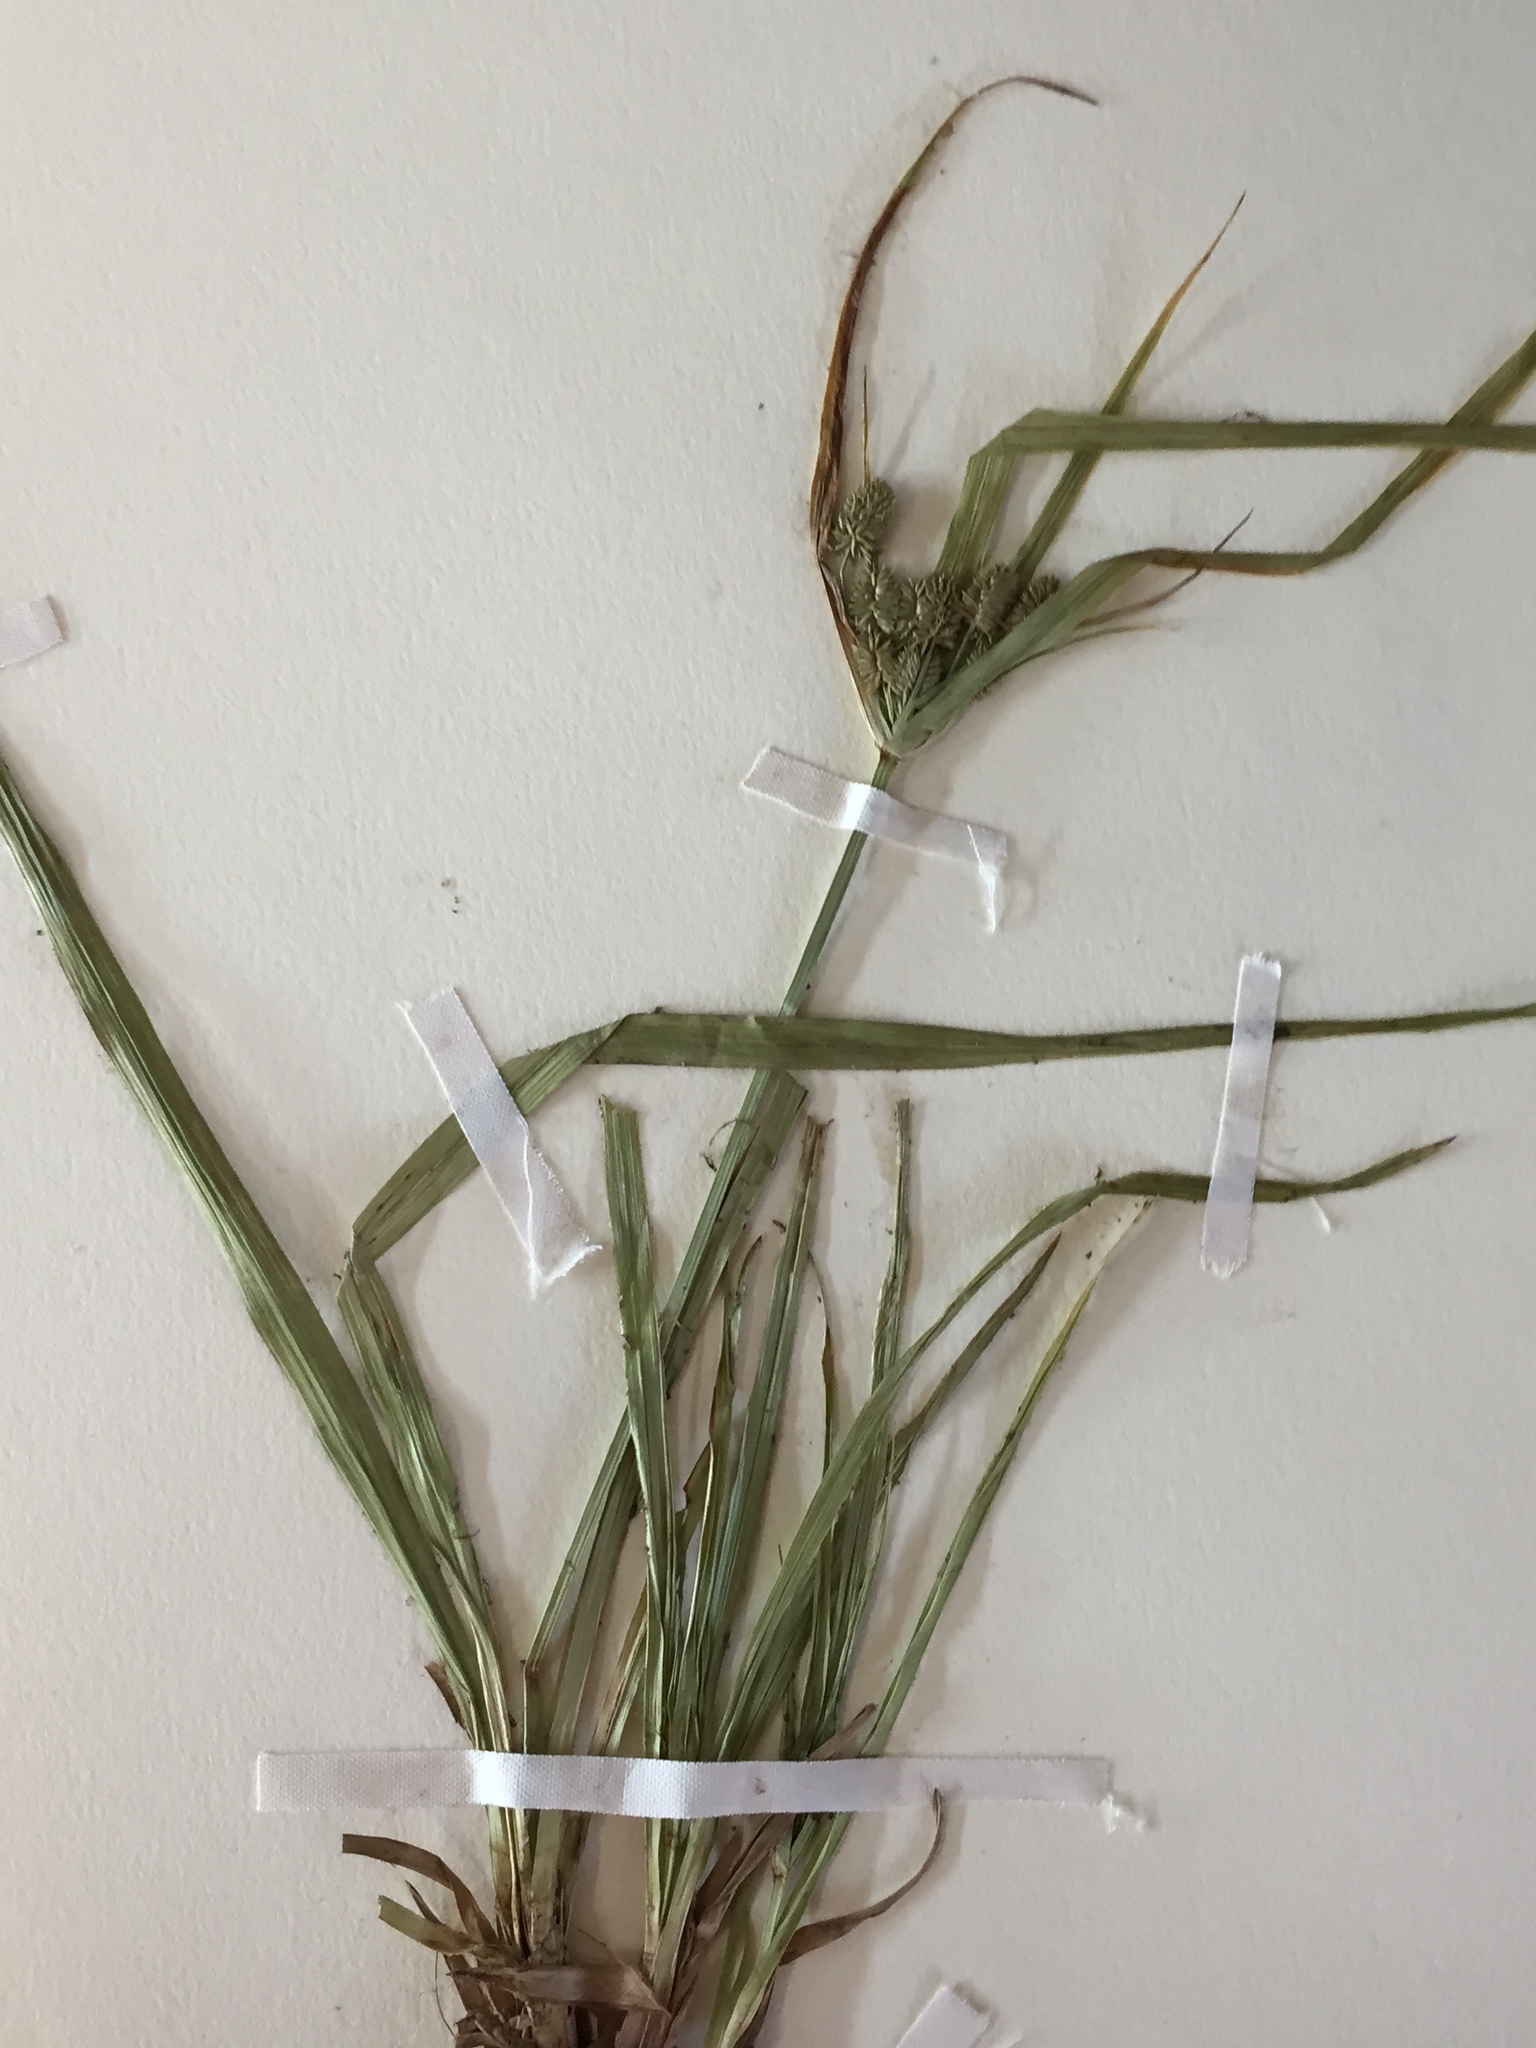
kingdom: Plantae
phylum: Tracheophyta
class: Liliopsida
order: Poales
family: Cyperaceae
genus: Cyperus
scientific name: Cyperus retrorsus
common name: Pinebarren flat sedge
